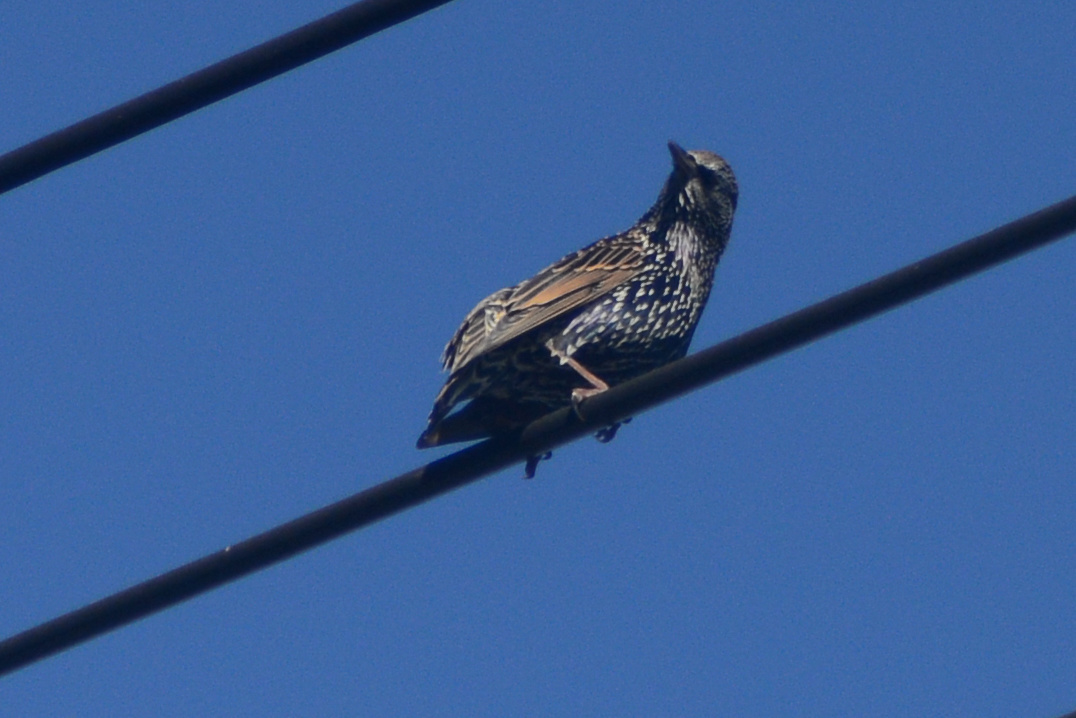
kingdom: Animalia
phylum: Chordata
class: Aves
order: Passeriformes
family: Sturnidae
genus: Sturnus
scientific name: Sturnus vulgaris
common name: Common starling
